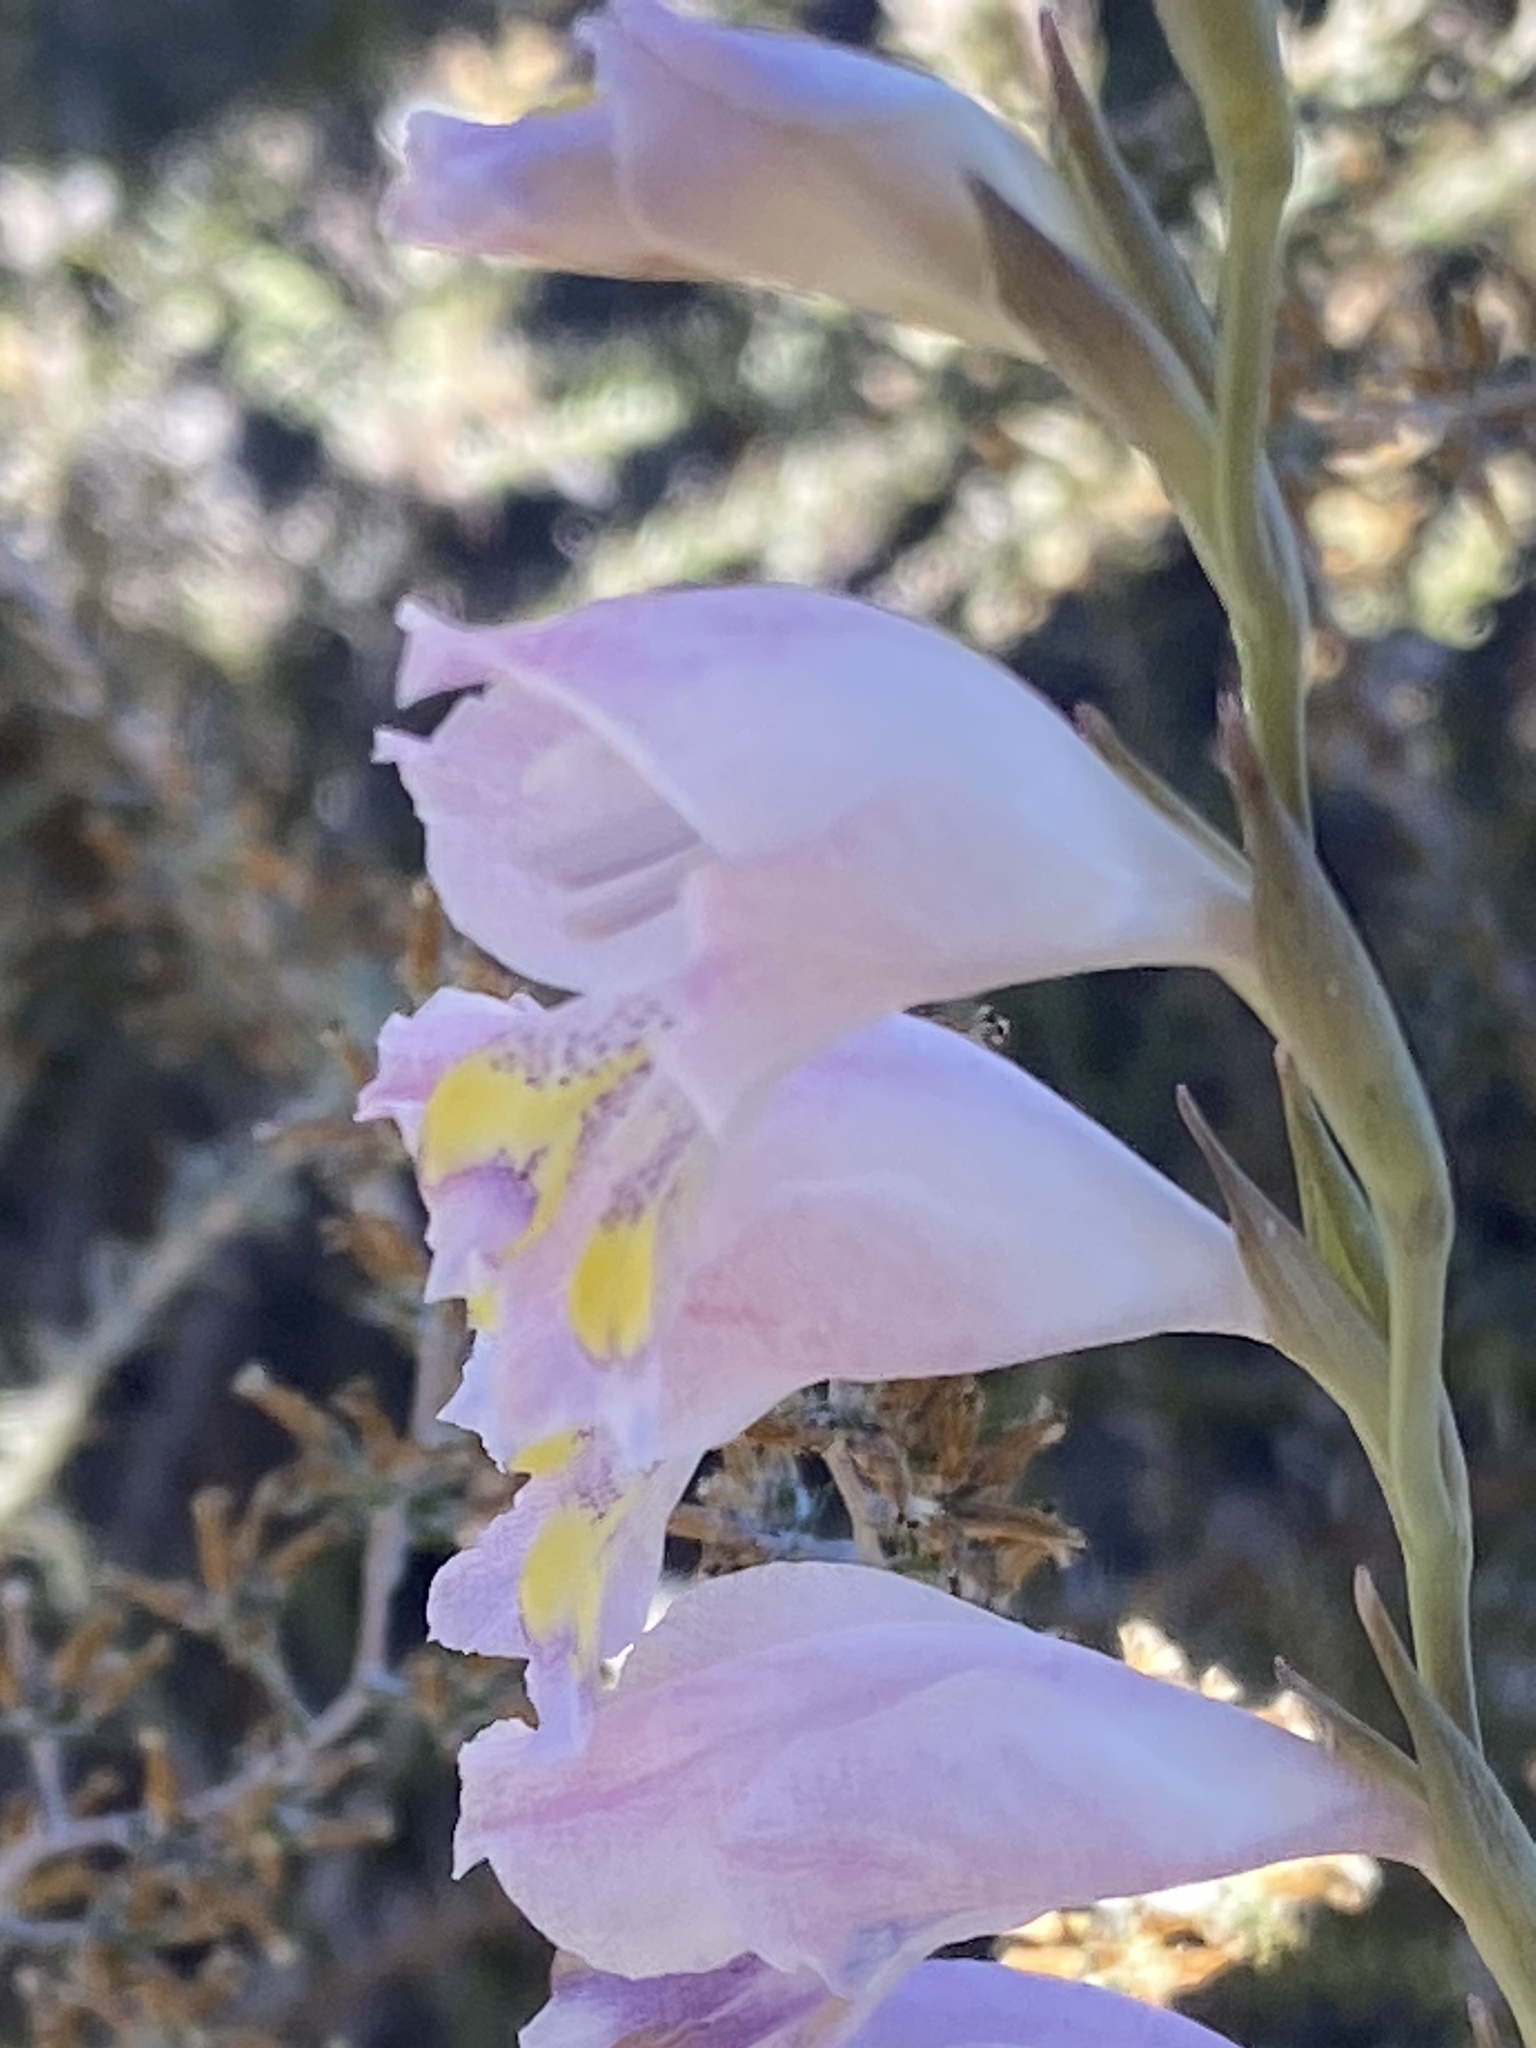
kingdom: Plantae
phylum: Tracheophyta
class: Liliopsida
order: Asparagales
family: Iridaceae
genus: Gladiolus
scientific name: Gladiolus brevifolius
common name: March pypie
